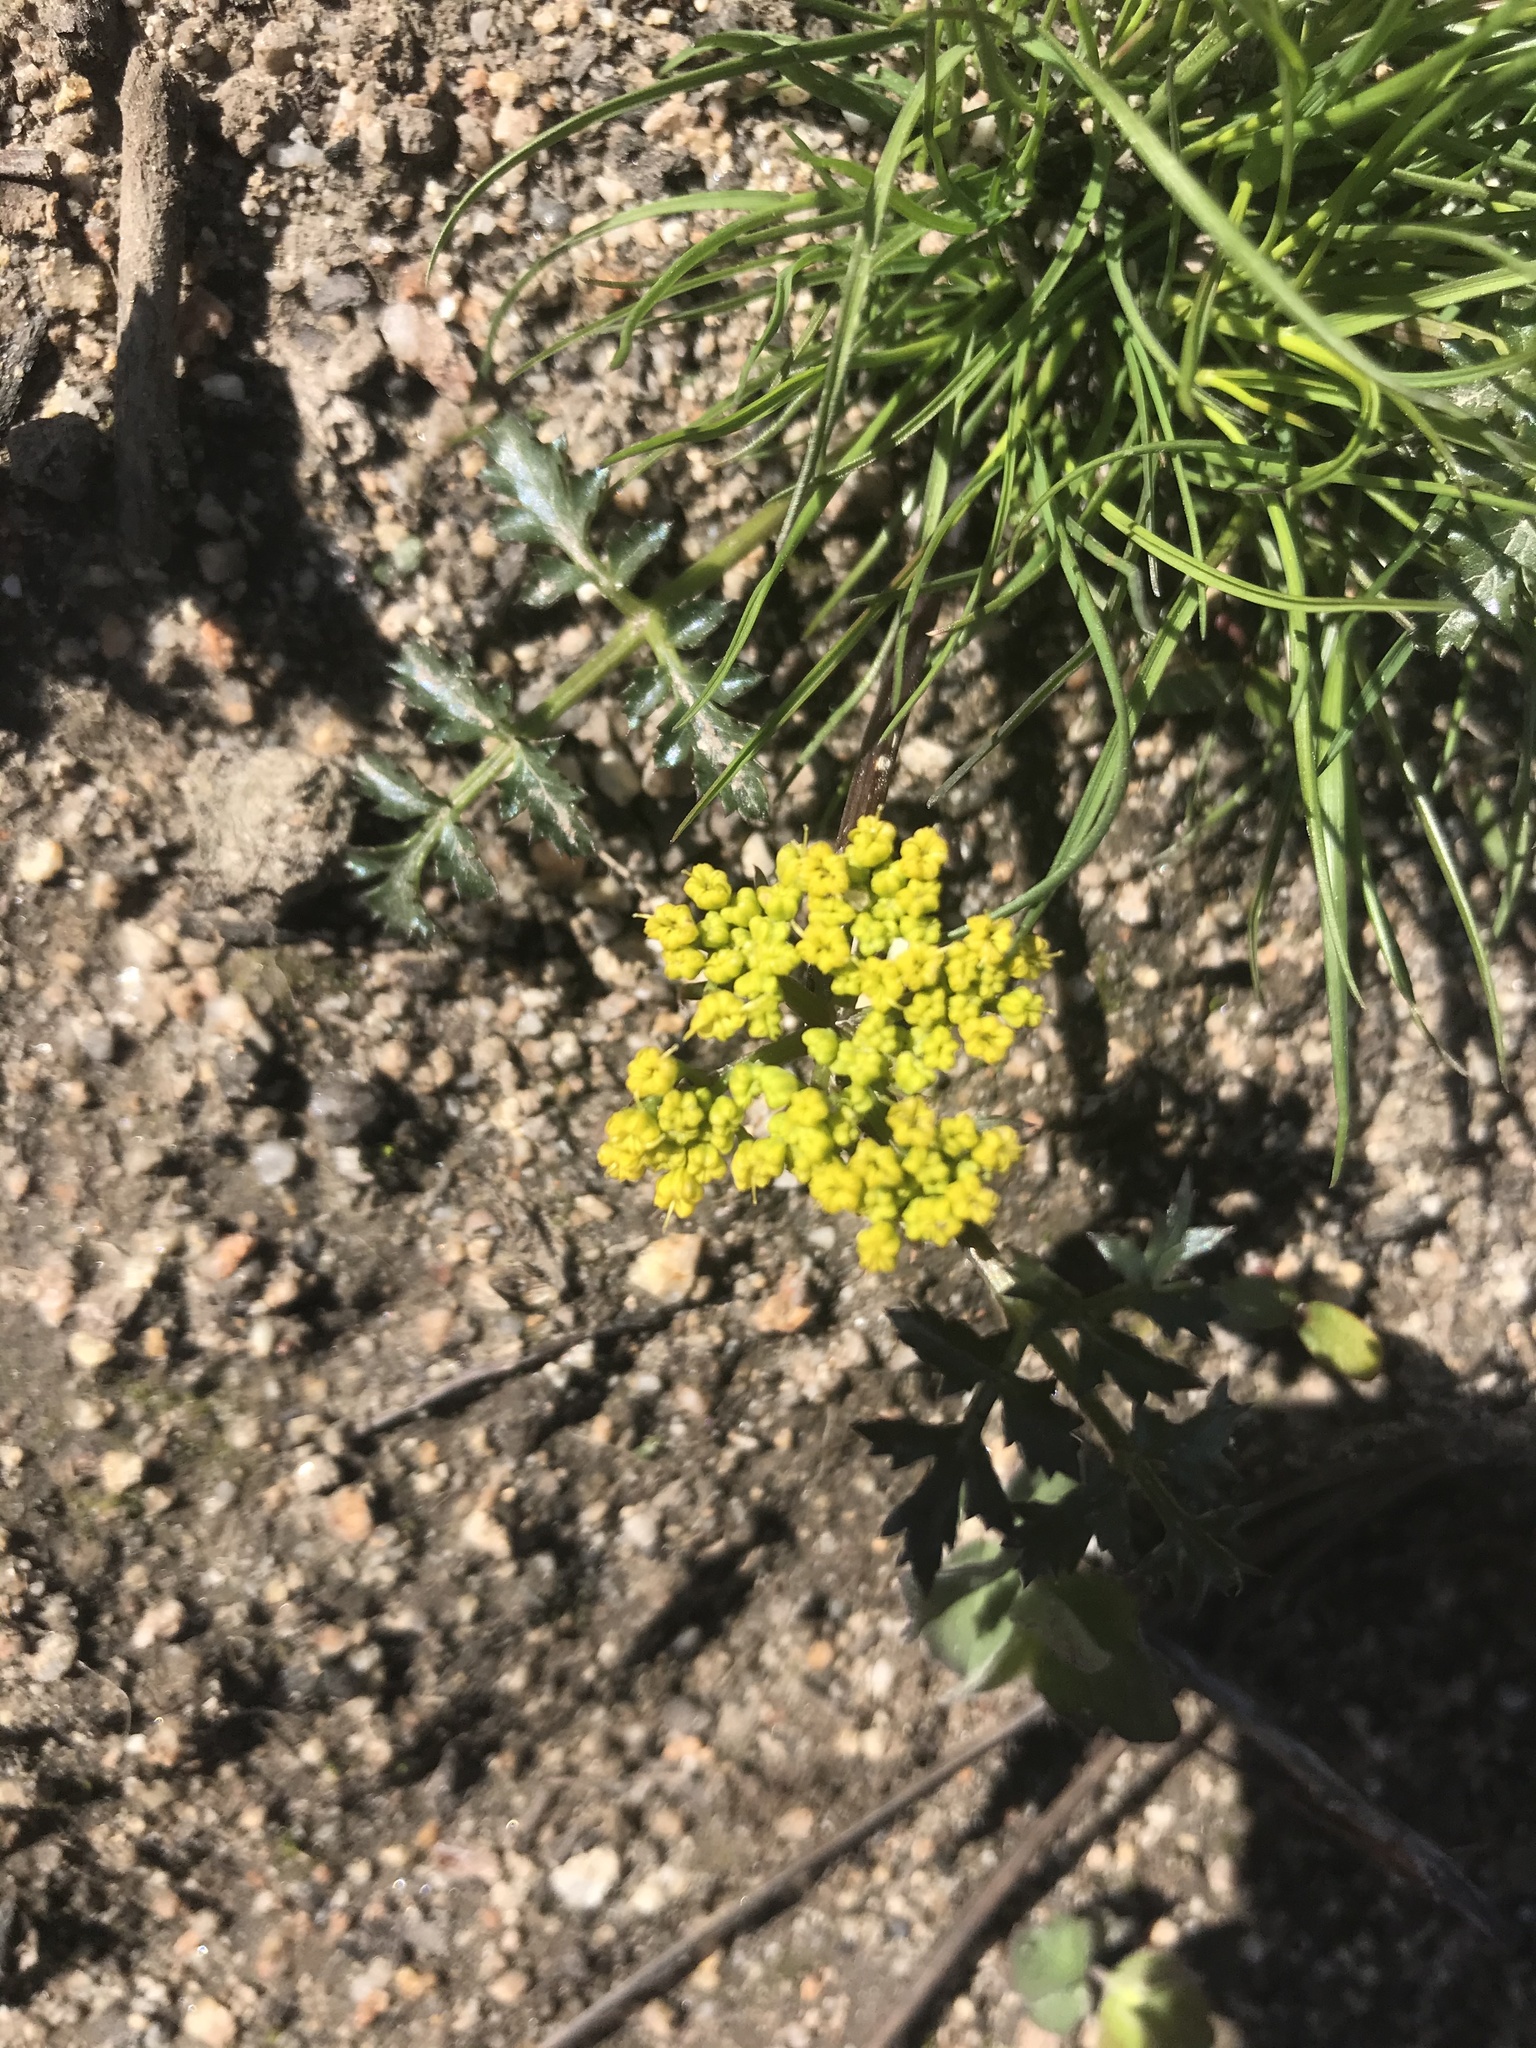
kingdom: Plantae
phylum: Tracheophyta
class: Magnoliopsida
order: Apiales
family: Apiaceae
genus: Lomatium
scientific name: Lomatium parvifolium
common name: Small-leaf lomatium
